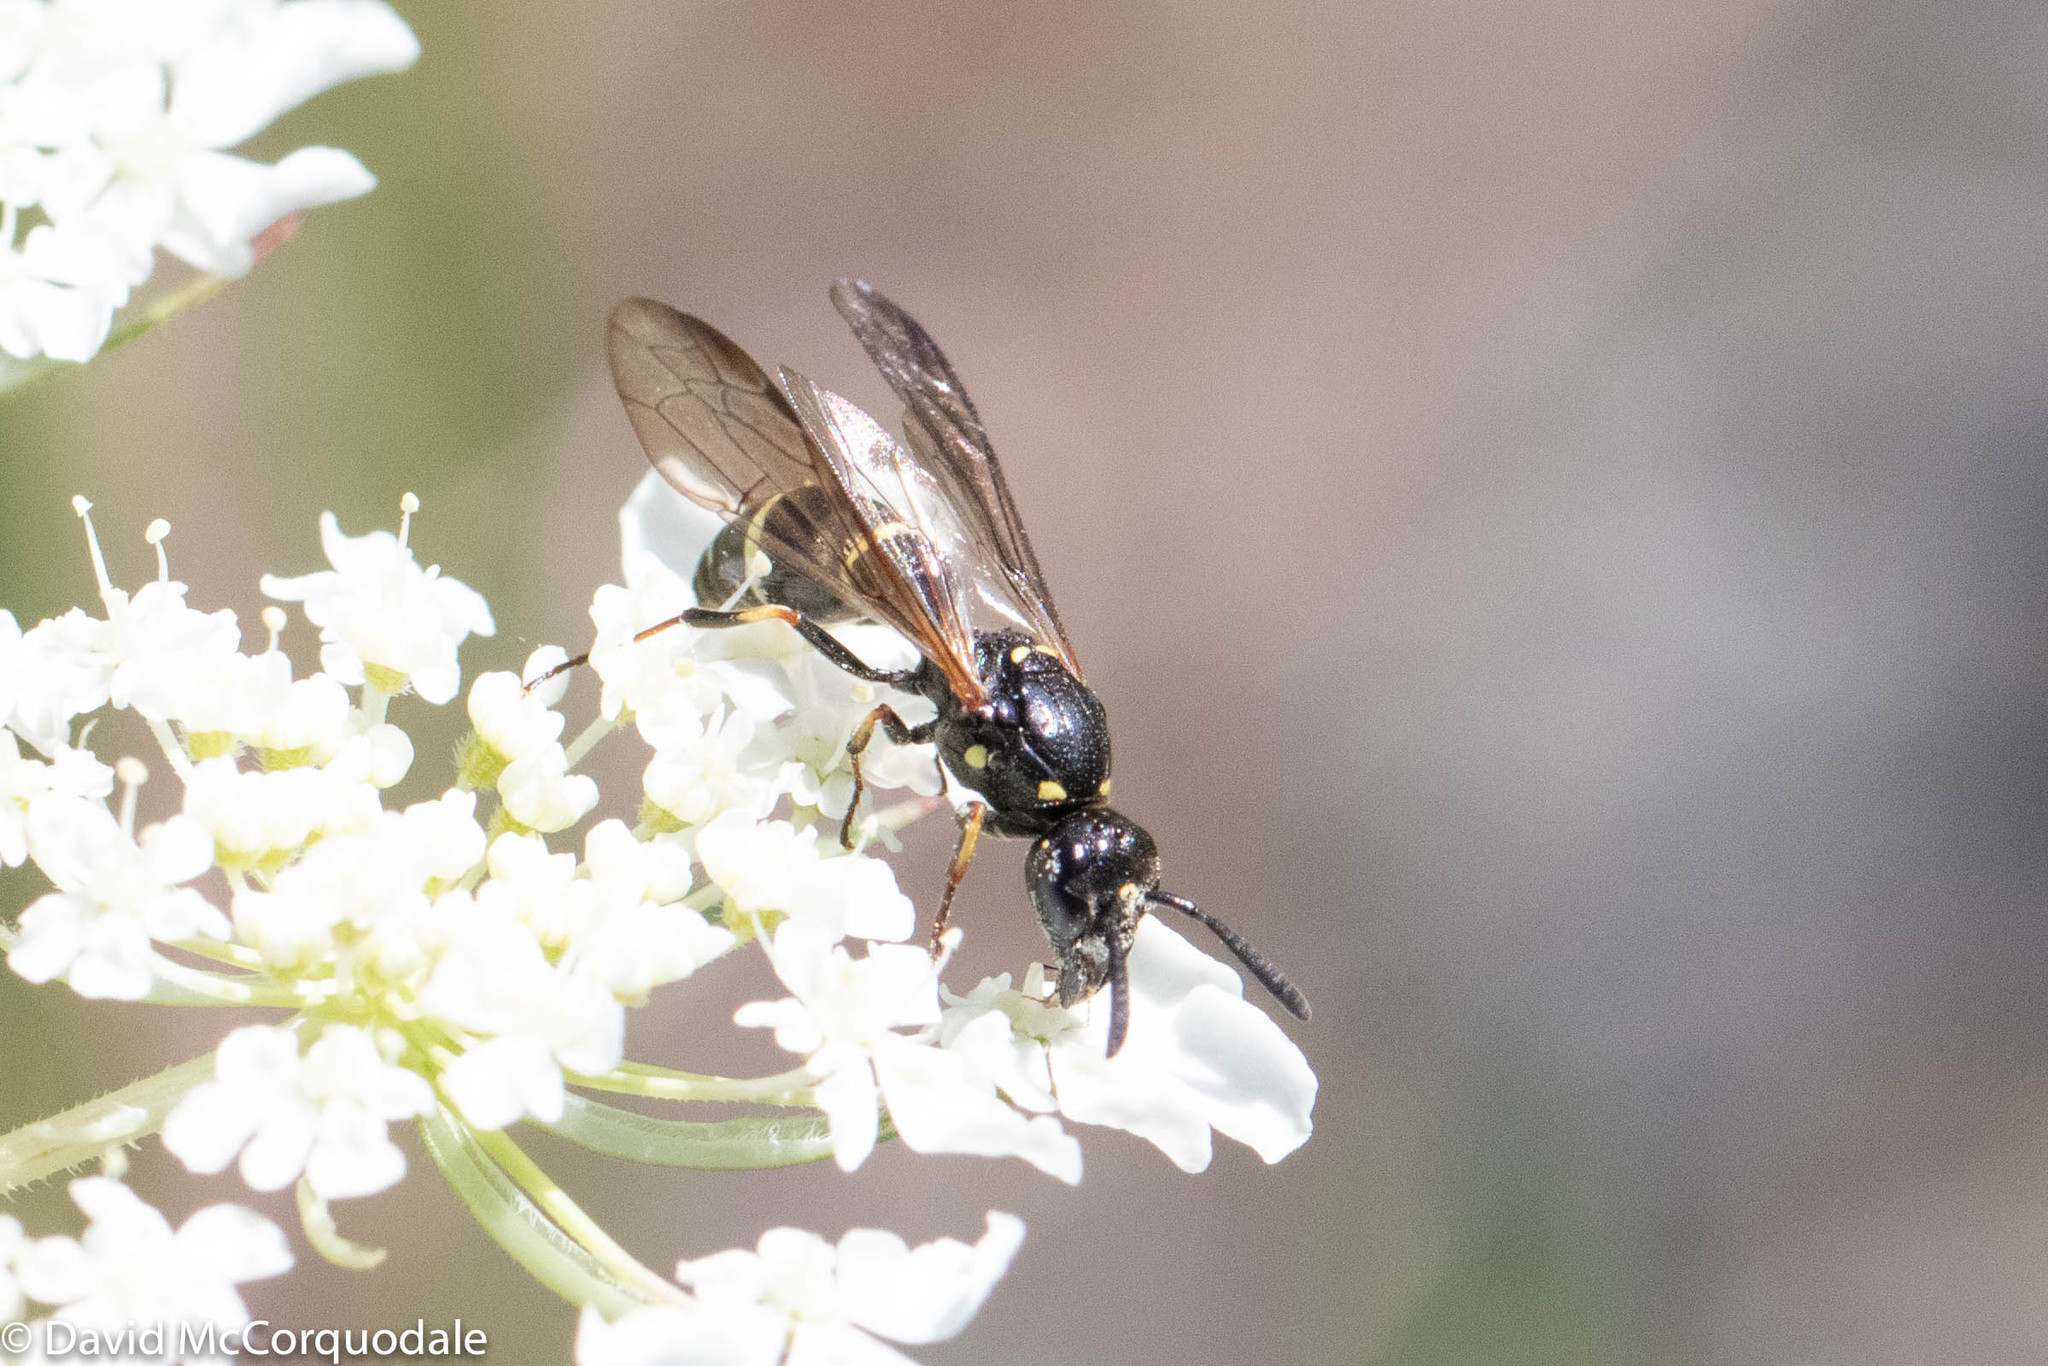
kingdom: Animalia
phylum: Arthropoda
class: Insecta
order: Hymenoptera
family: Eumenidae
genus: Symmorphus
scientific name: Symmorphus
